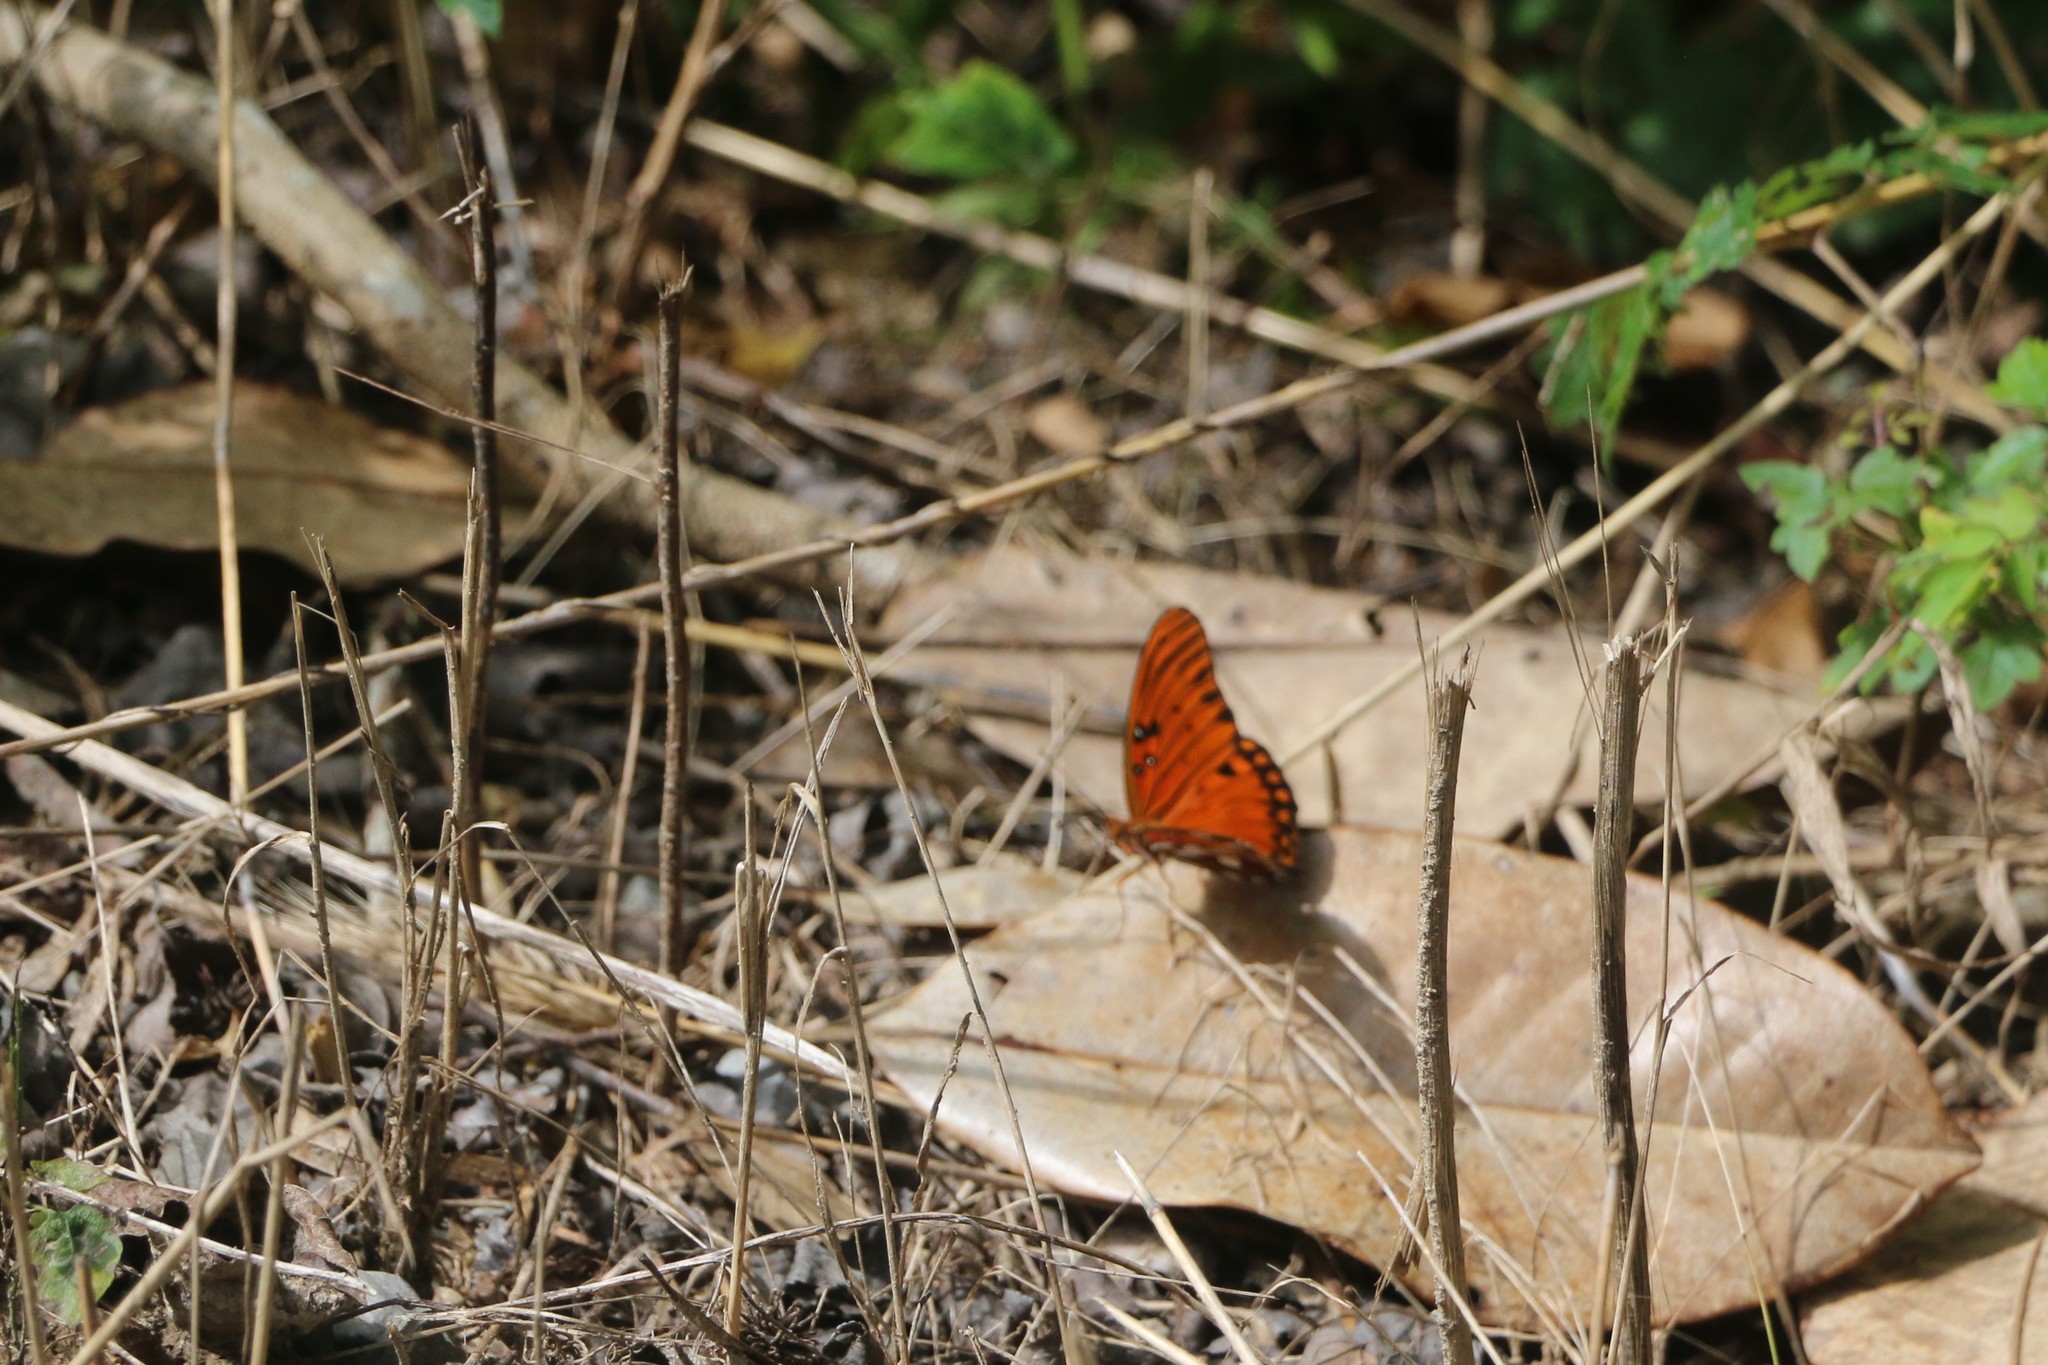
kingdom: Animalia
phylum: Arthropoda
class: Insecta
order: Lepidoptera
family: Nymphalidae
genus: Dione
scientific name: Dione vanillae
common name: Gulf fritillary
